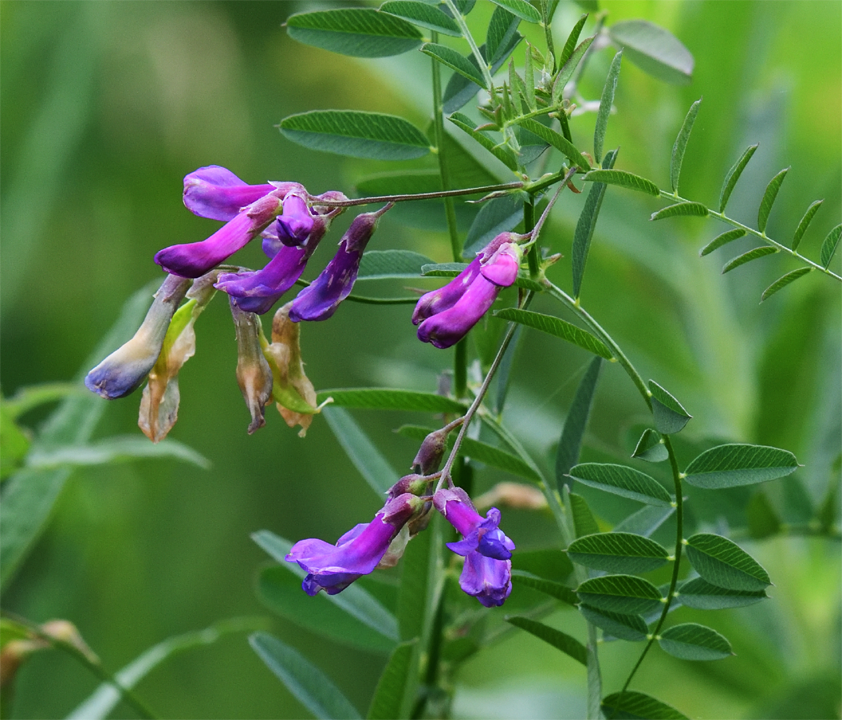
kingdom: Plantae
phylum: Tracheophyta
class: Magnoliopsida
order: Fabales
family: Fabaceae
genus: Vicia
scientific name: Vicia americana
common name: American vetch
